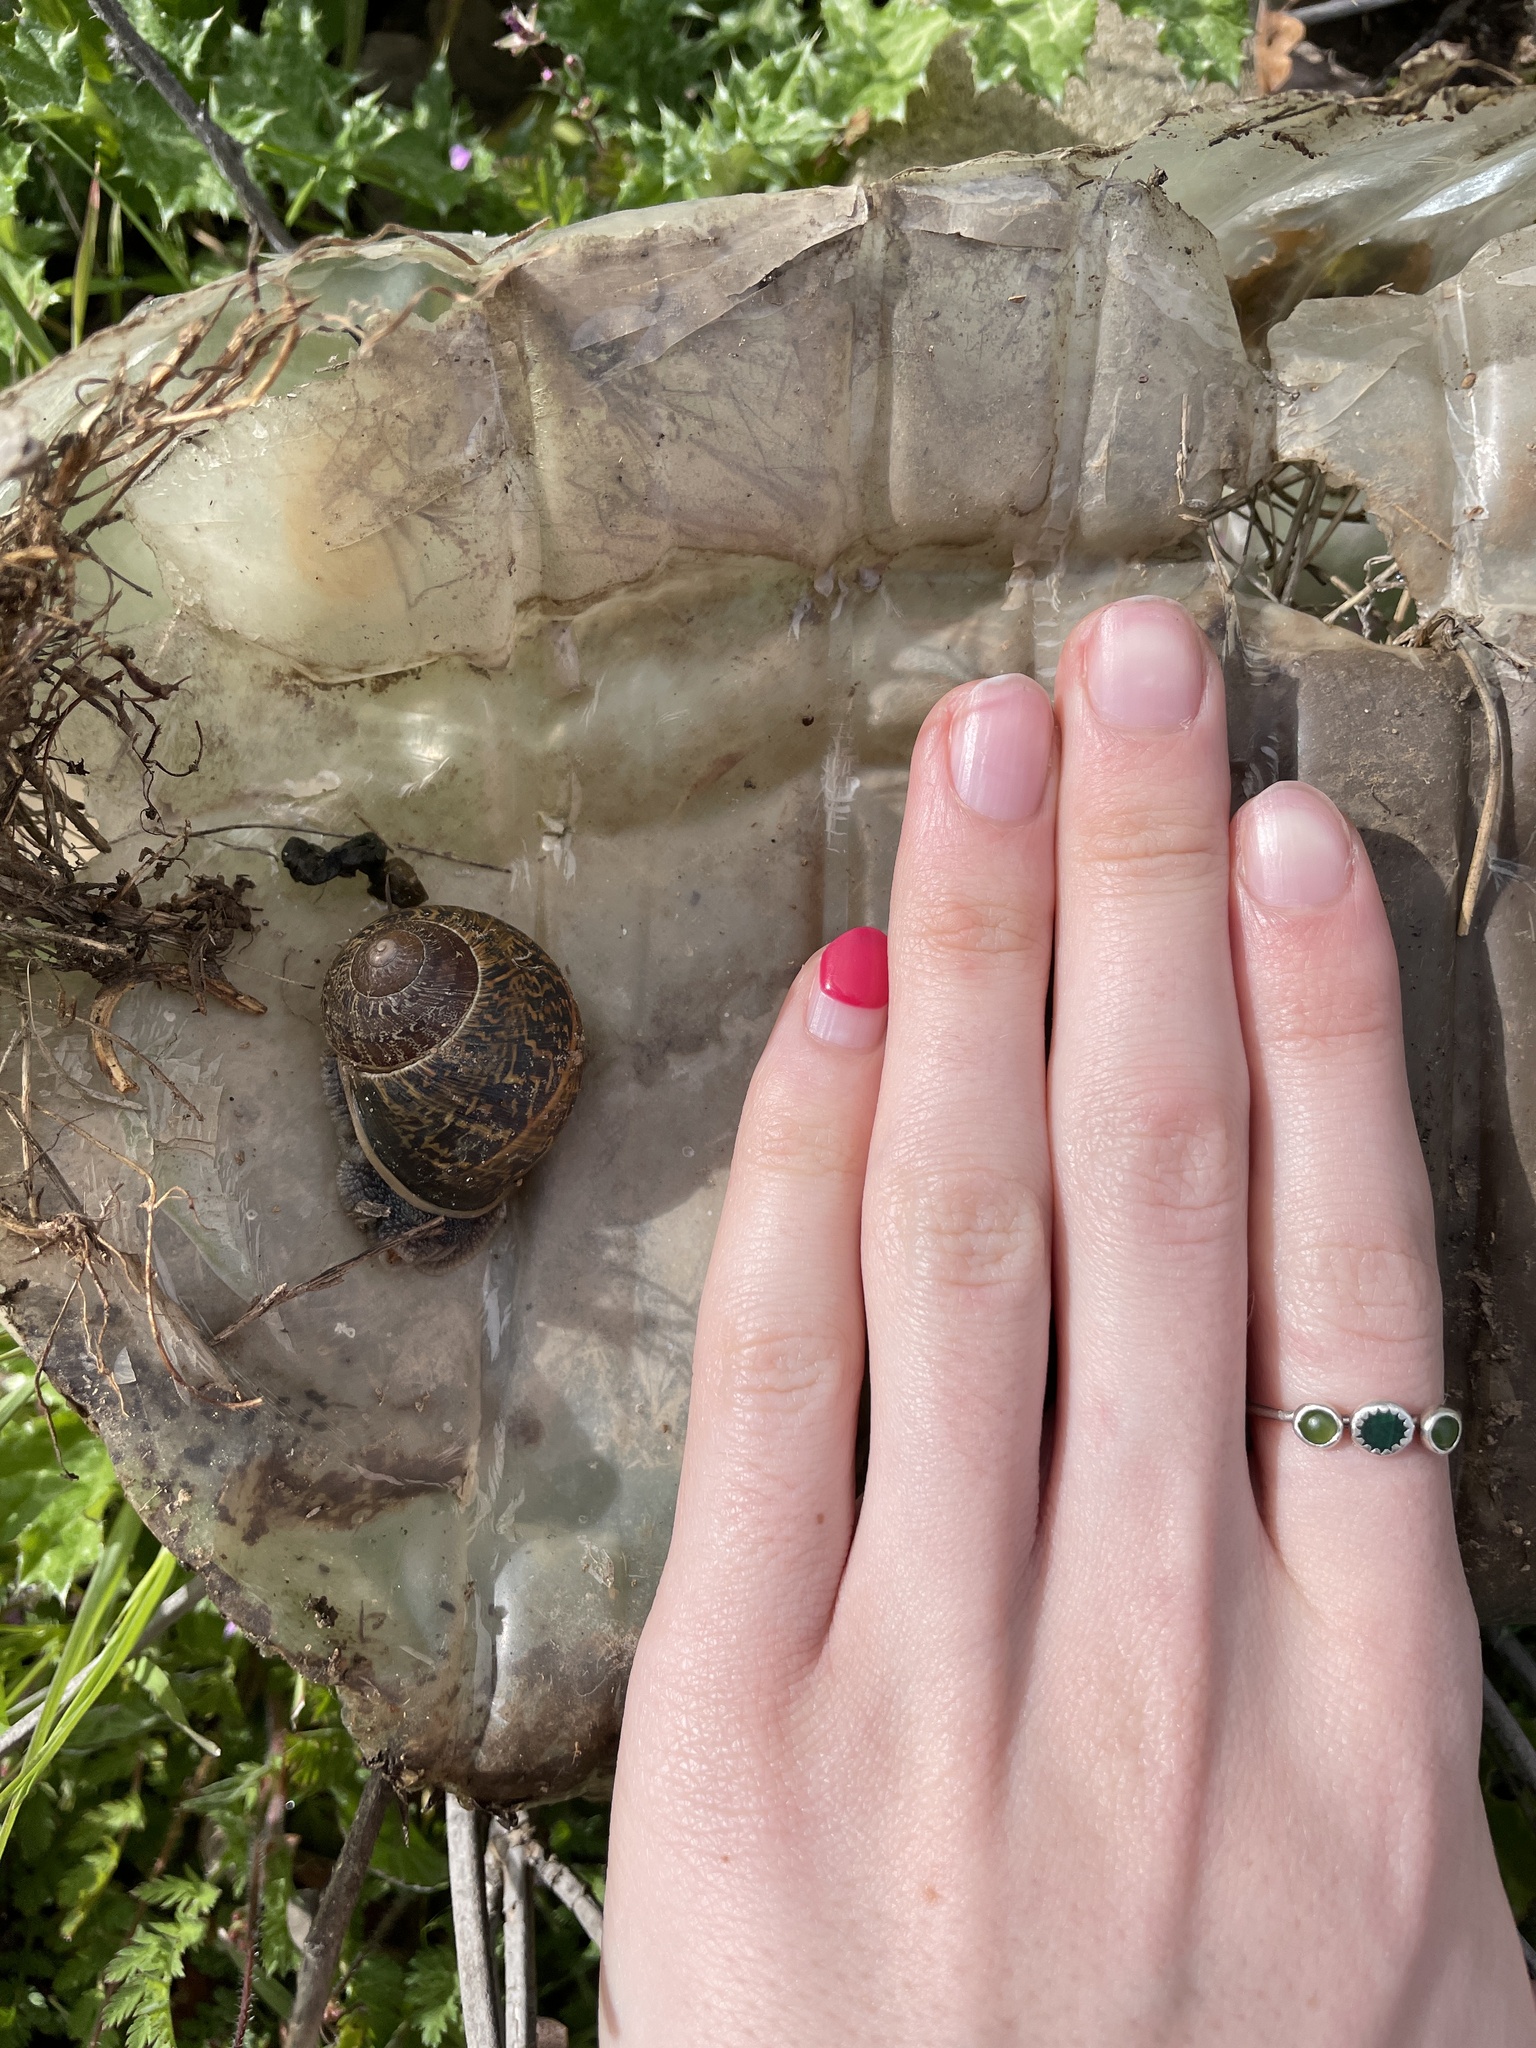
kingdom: Animalia
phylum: Mollusca
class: Gastropoda
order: Stylommatophora
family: Helicidae
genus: Cornu
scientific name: Cornu aspersum
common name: Brown garden snail
